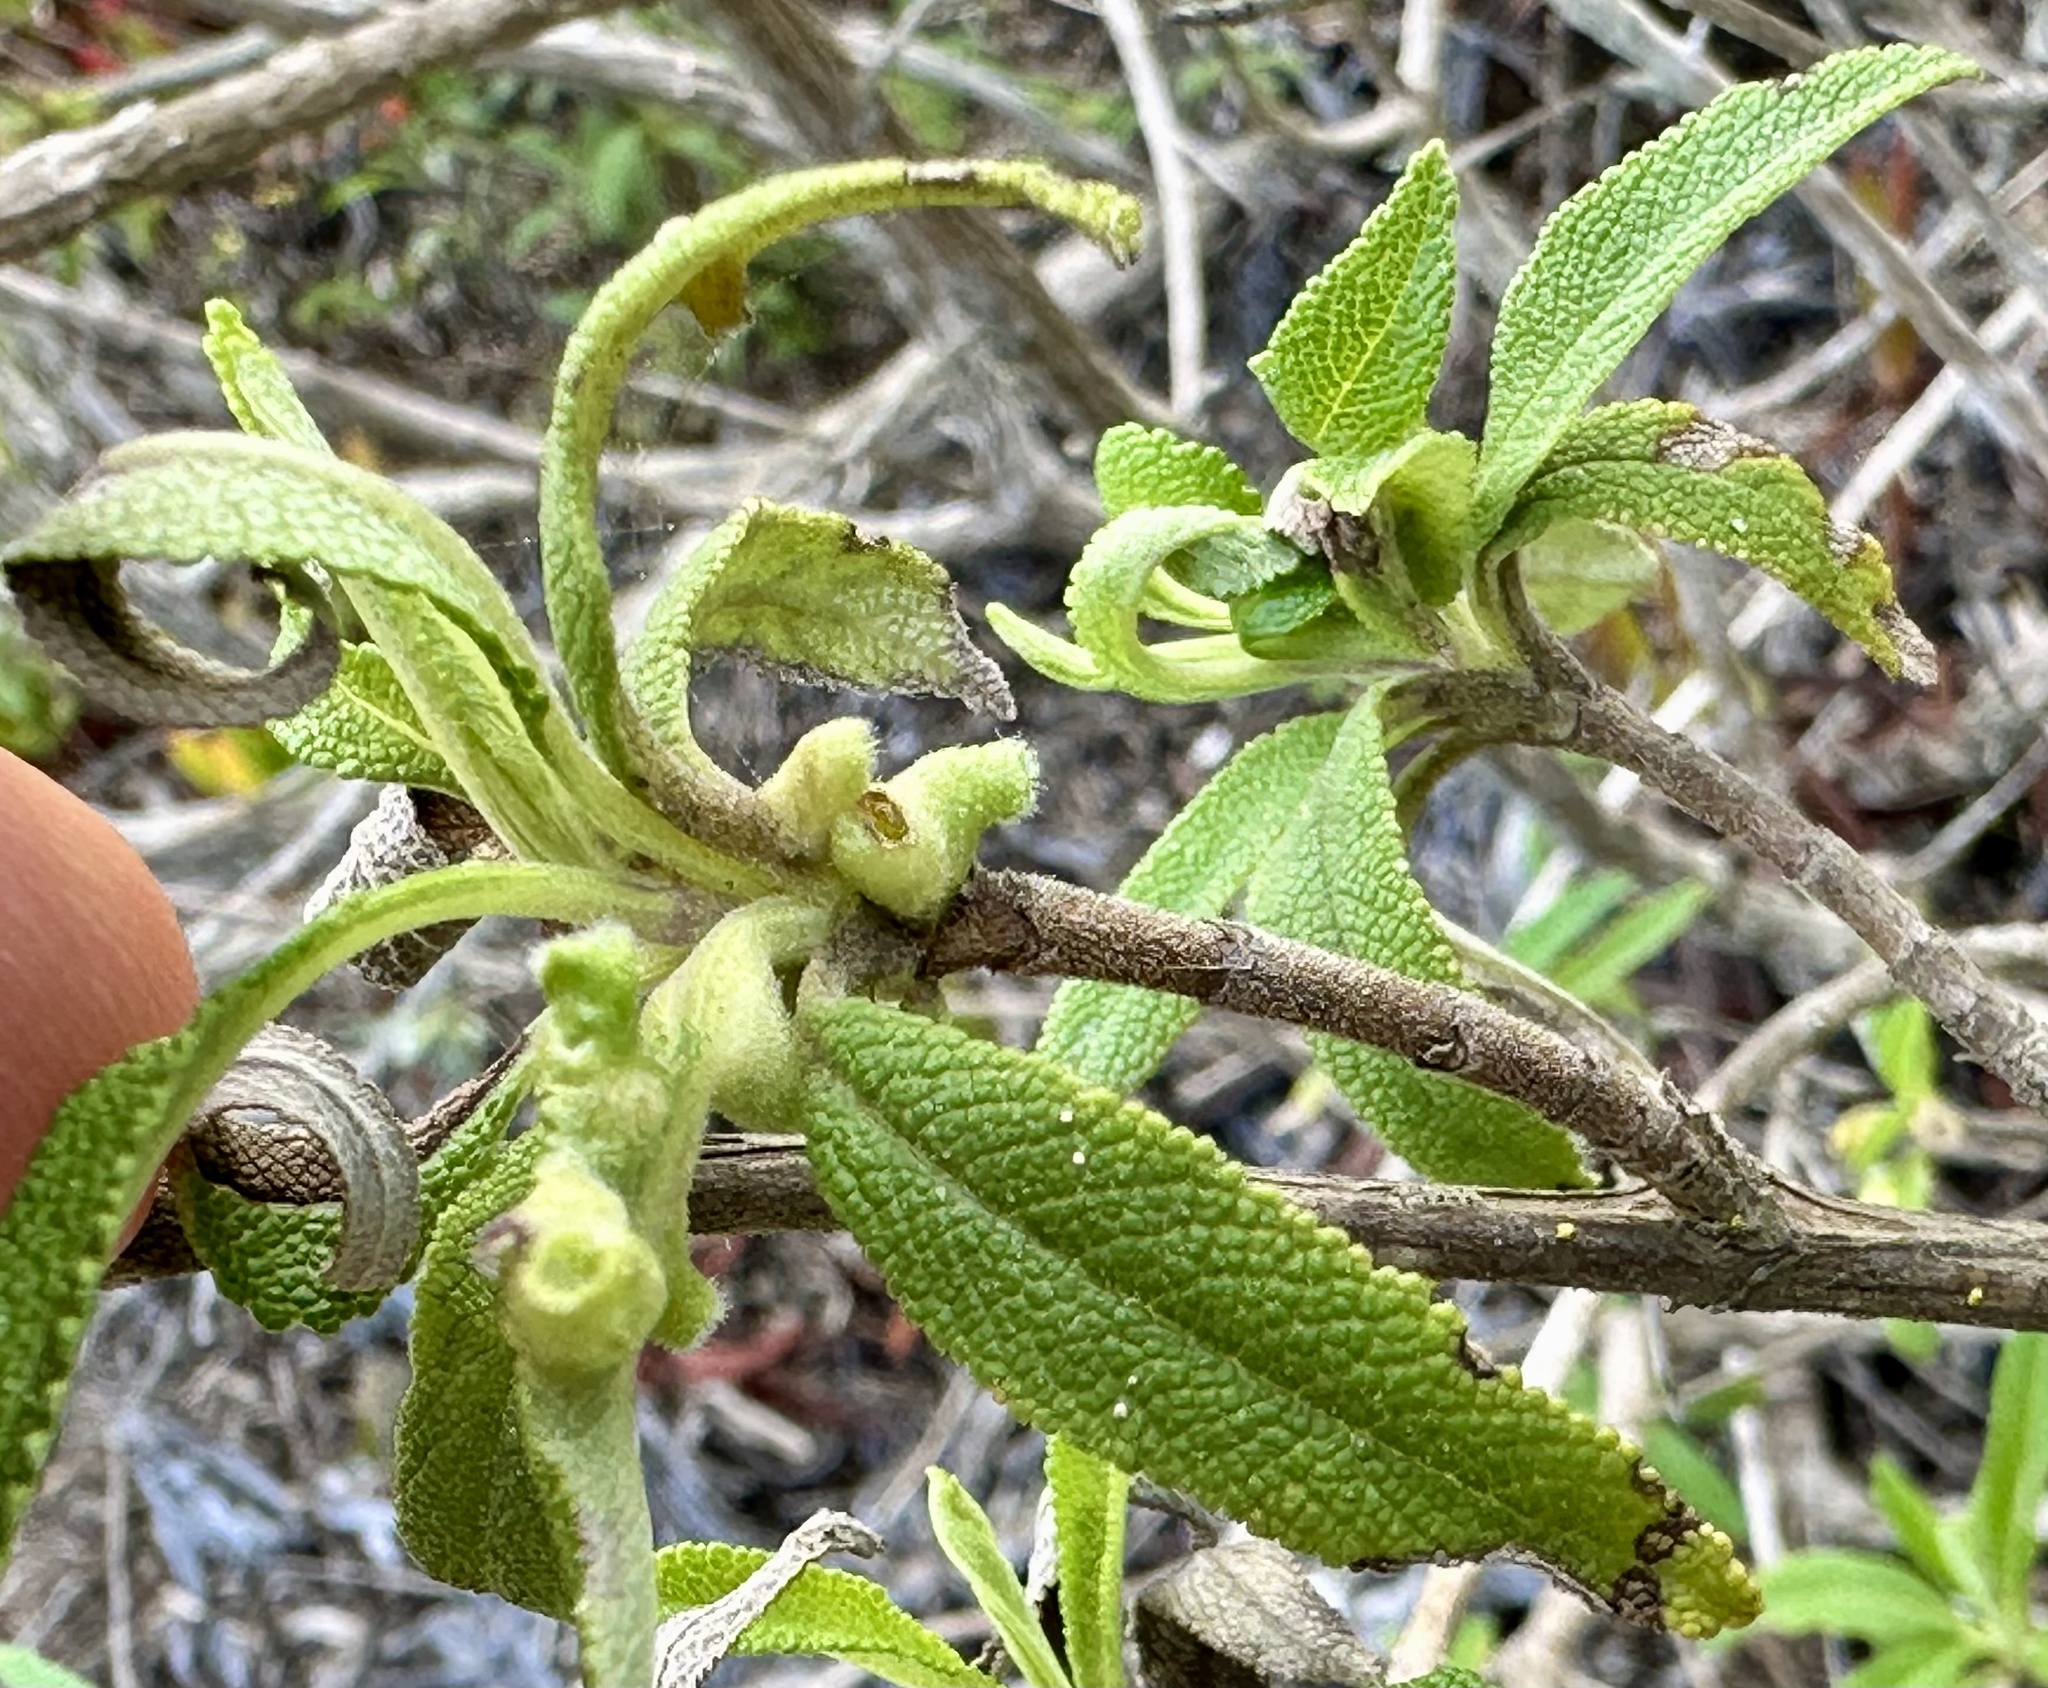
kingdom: Animalia
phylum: Arthropoda
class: Insecta
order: Diptera
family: Cecidomyiidae
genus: Rhopalomyia
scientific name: Rhopalomyia audibertiae
